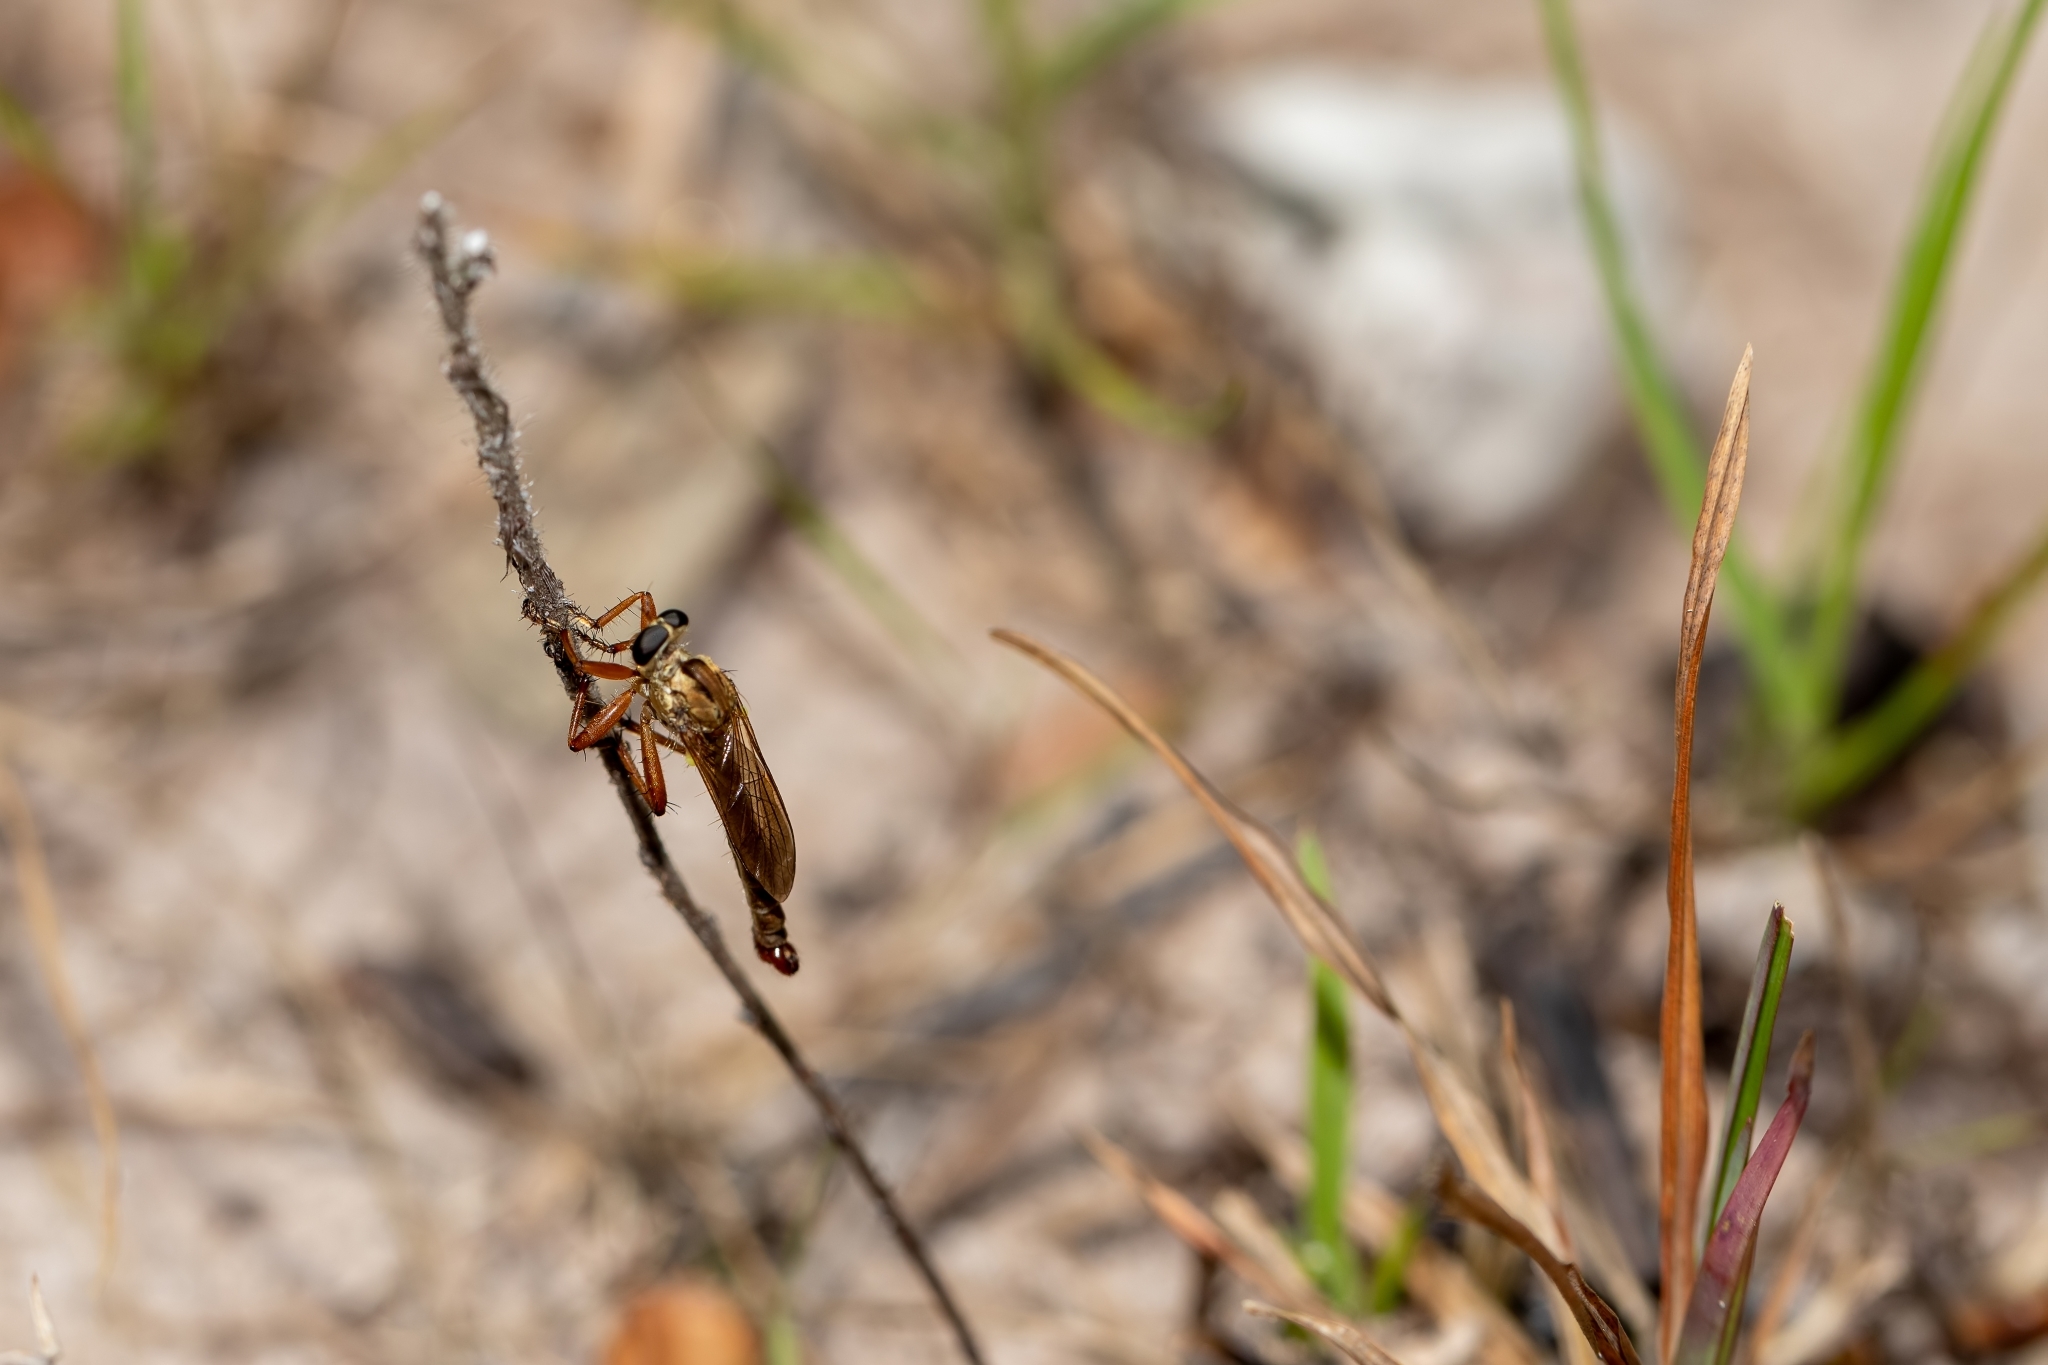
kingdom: Animalia
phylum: Arthropoda
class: Insecta
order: Diptera
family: Asilidae
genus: Polacantha
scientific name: Polacantha gracilis
